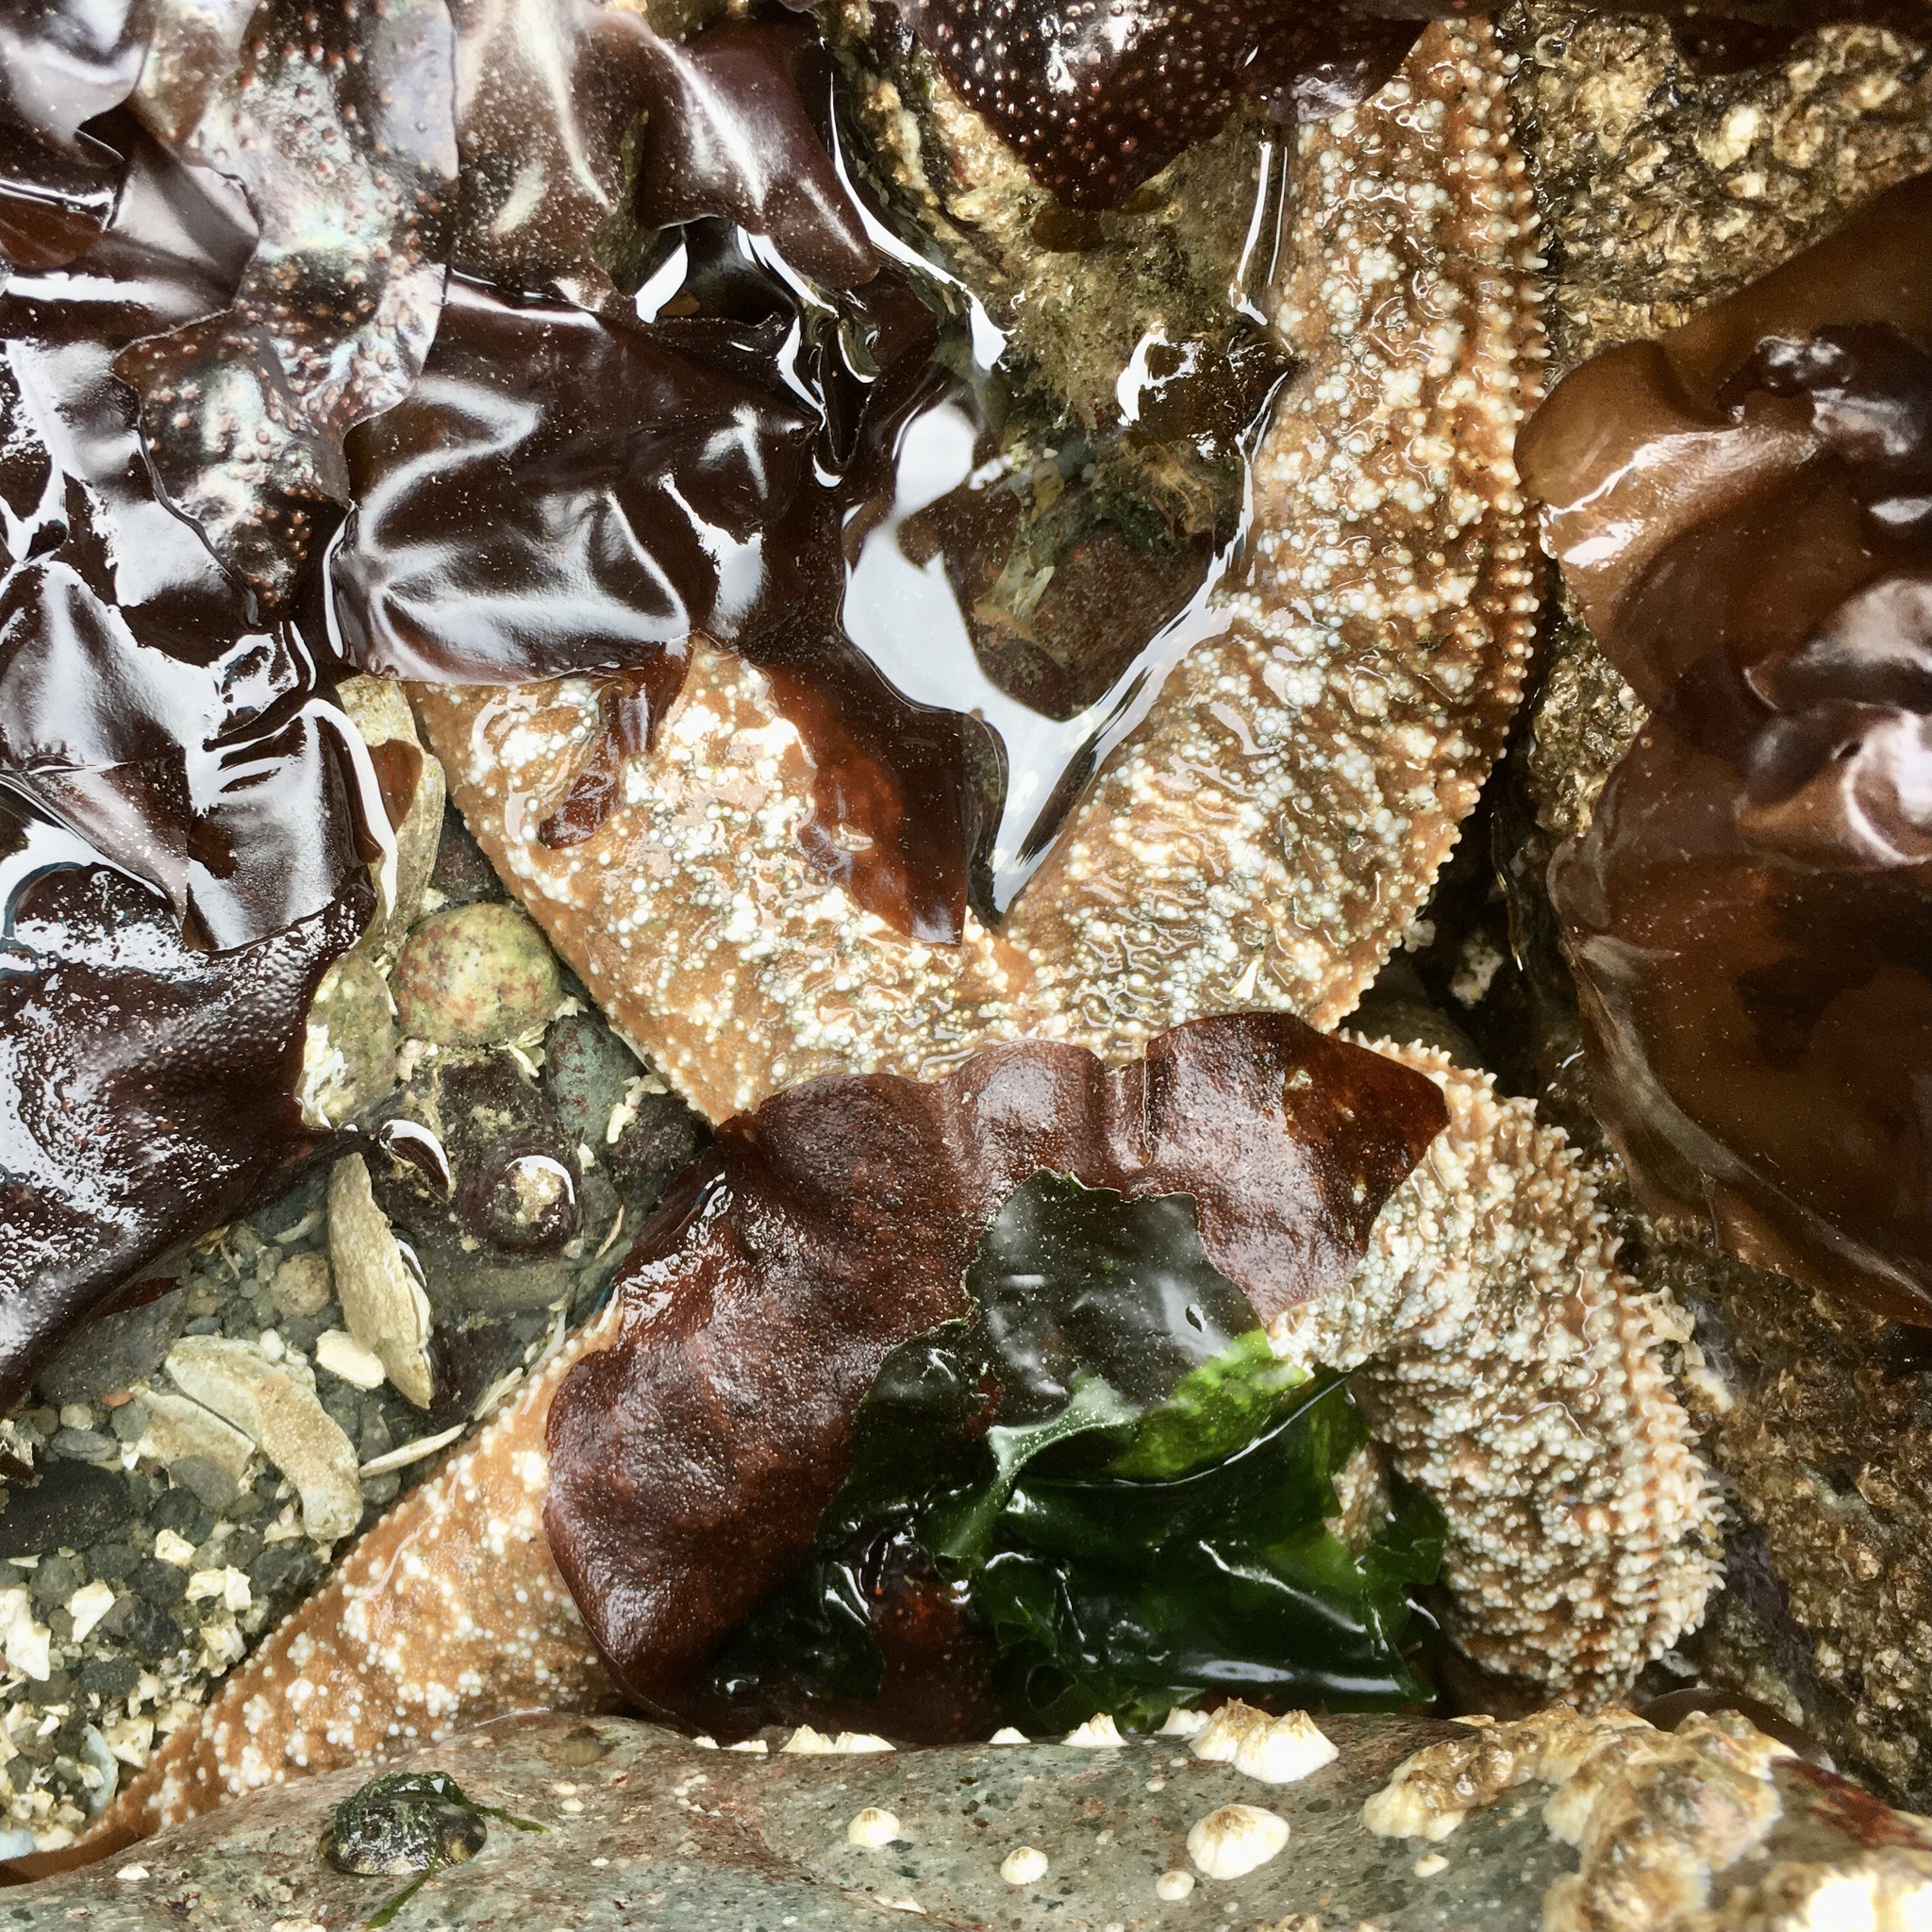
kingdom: Animalia
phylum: Echinodermata
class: Asteroidea
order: Forcipulatida
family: Asteriidae
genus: Evasterias
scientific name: Evasterias troschelii
